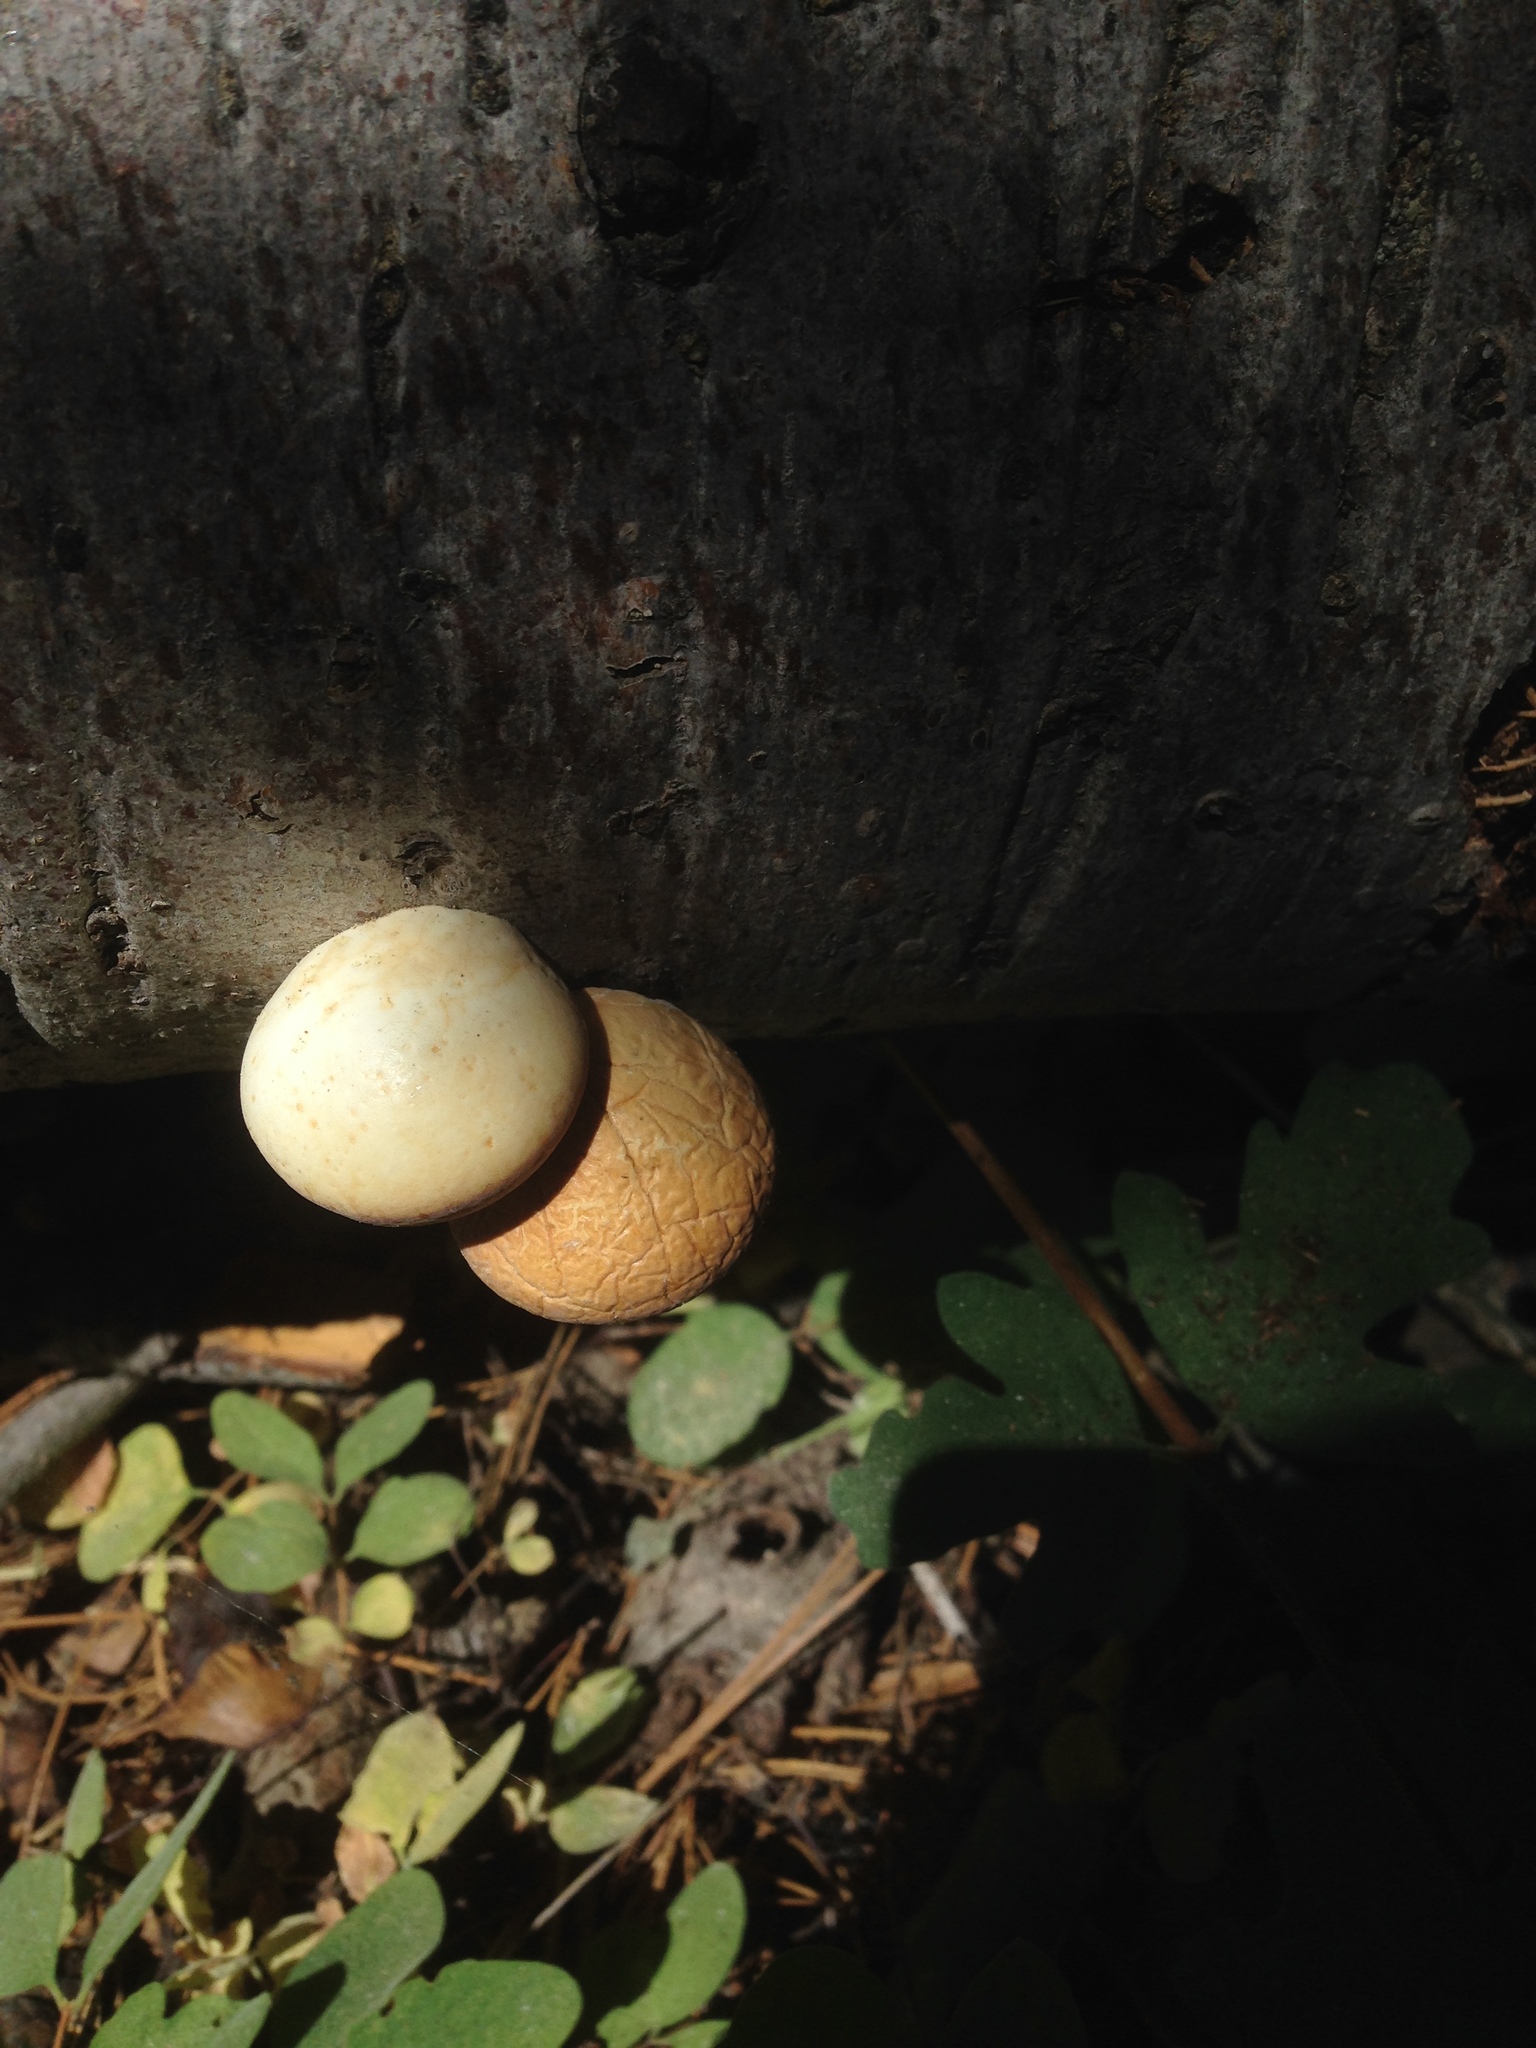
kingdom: Fungi
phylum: Basidiomycota
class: Agaricomycetes
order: Polyporales
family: Polyporaceae
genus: Cryptoporus
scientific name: Cryptoporus volvatus
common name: Veiled polypore
